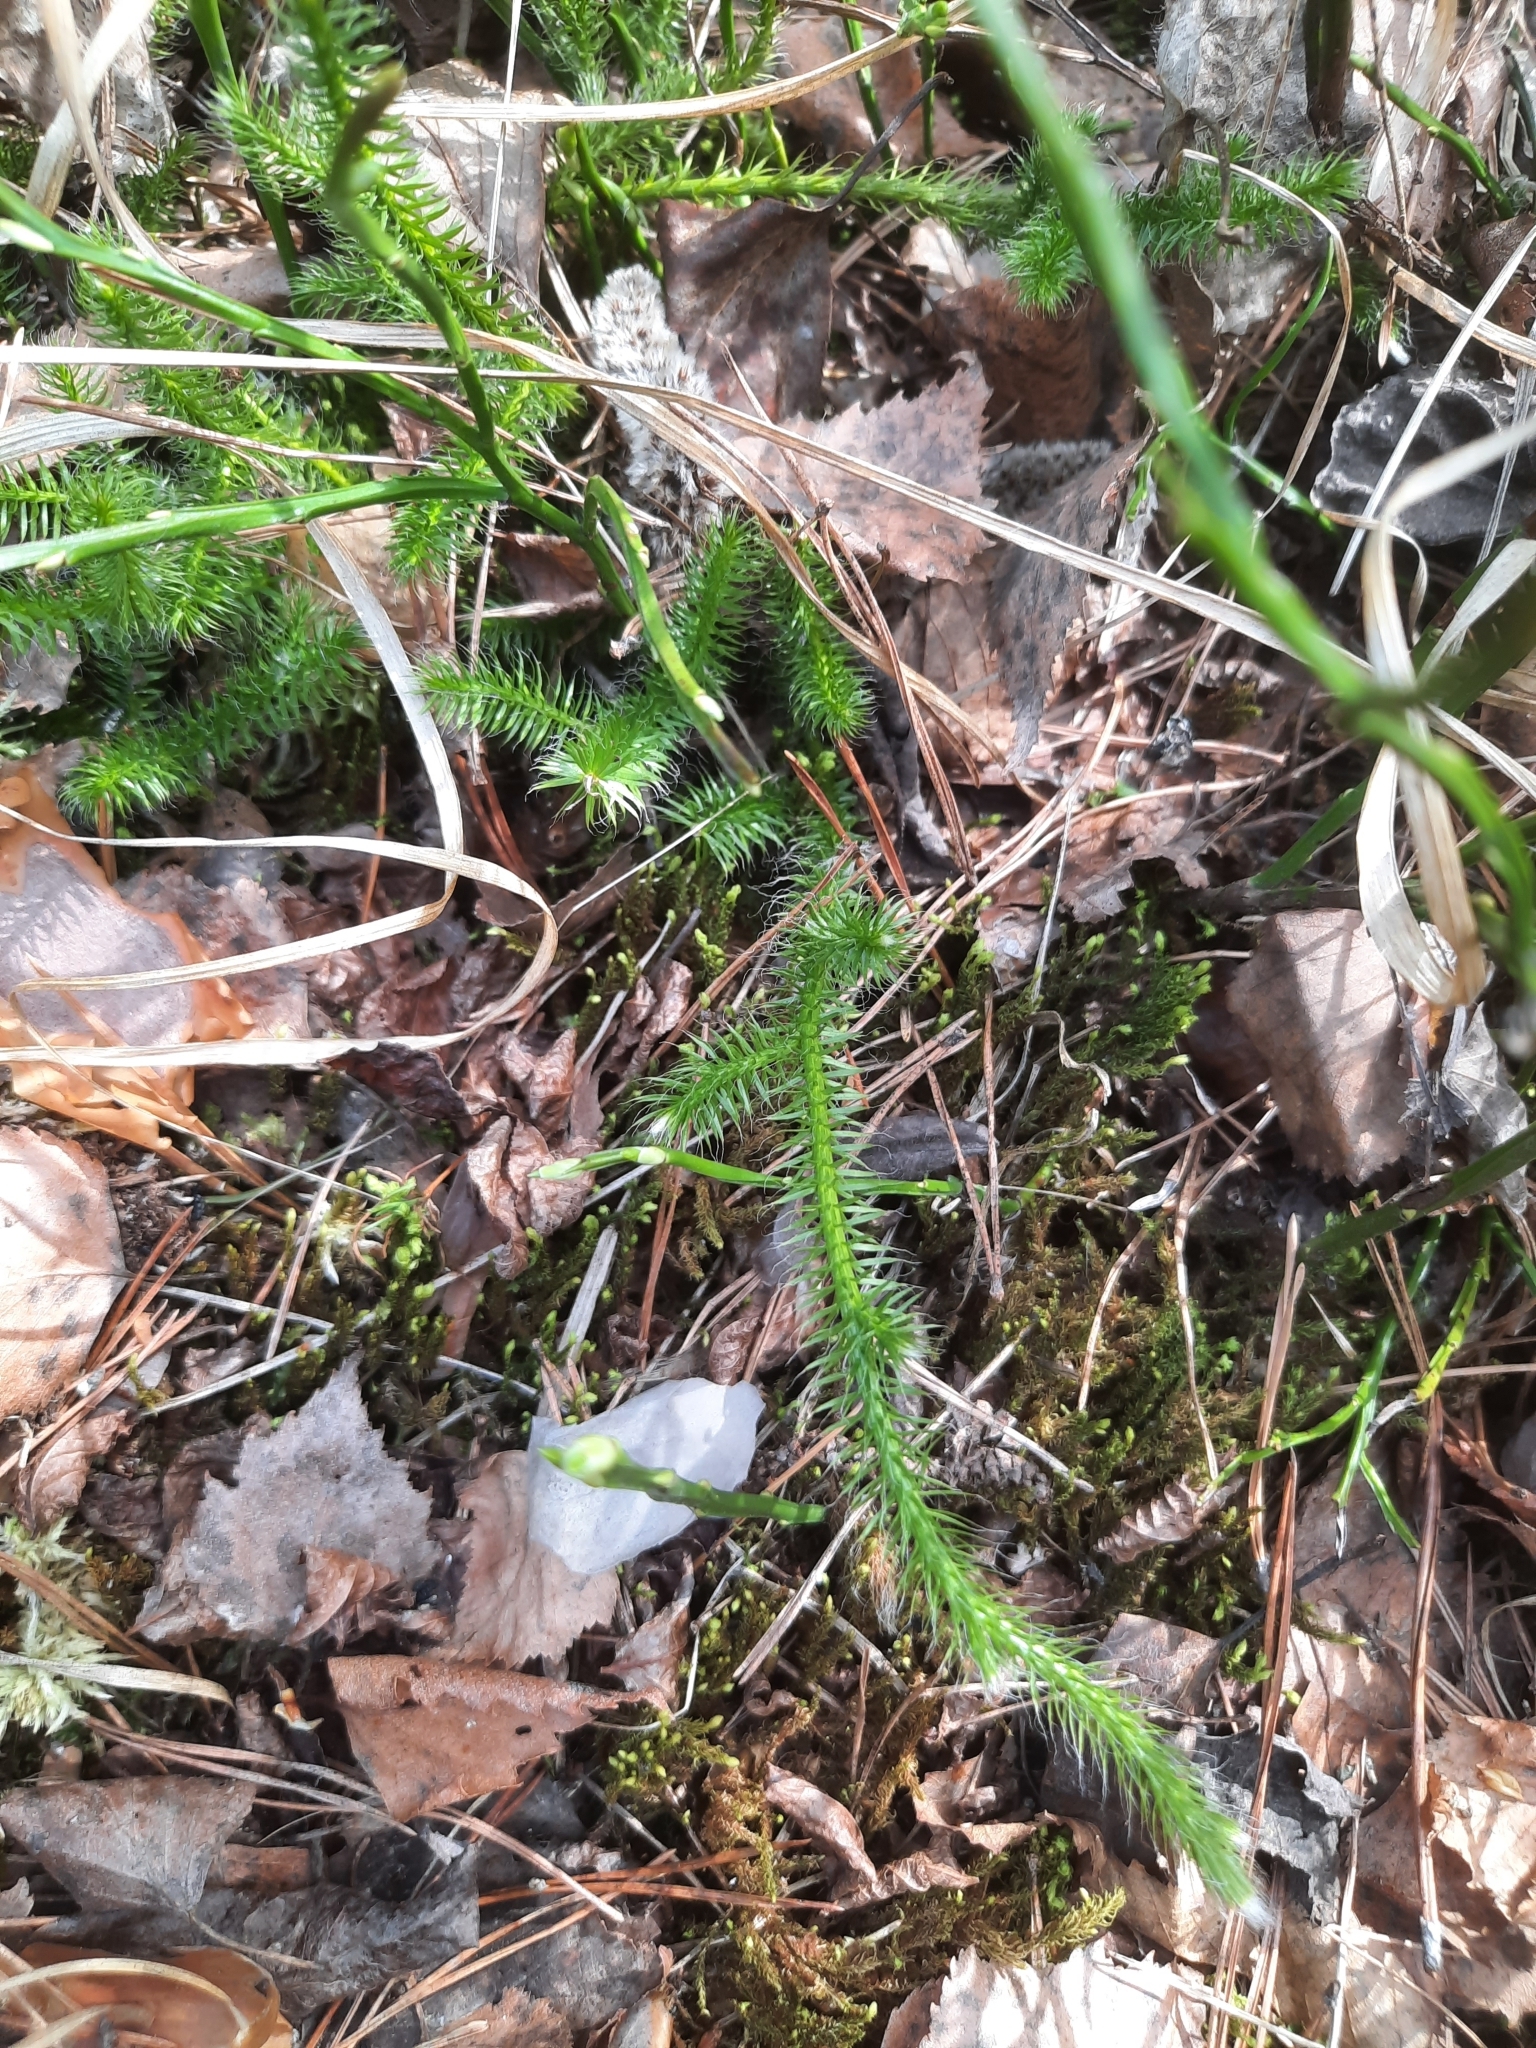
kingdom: Plantae
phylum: Tracheophyta
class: Lycopodiopsida
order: Lycopodiales
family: Lycopodiaceae
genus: Lycopodium
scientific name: Lycopodium clavatum
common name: Stag's-horn clubmoss
